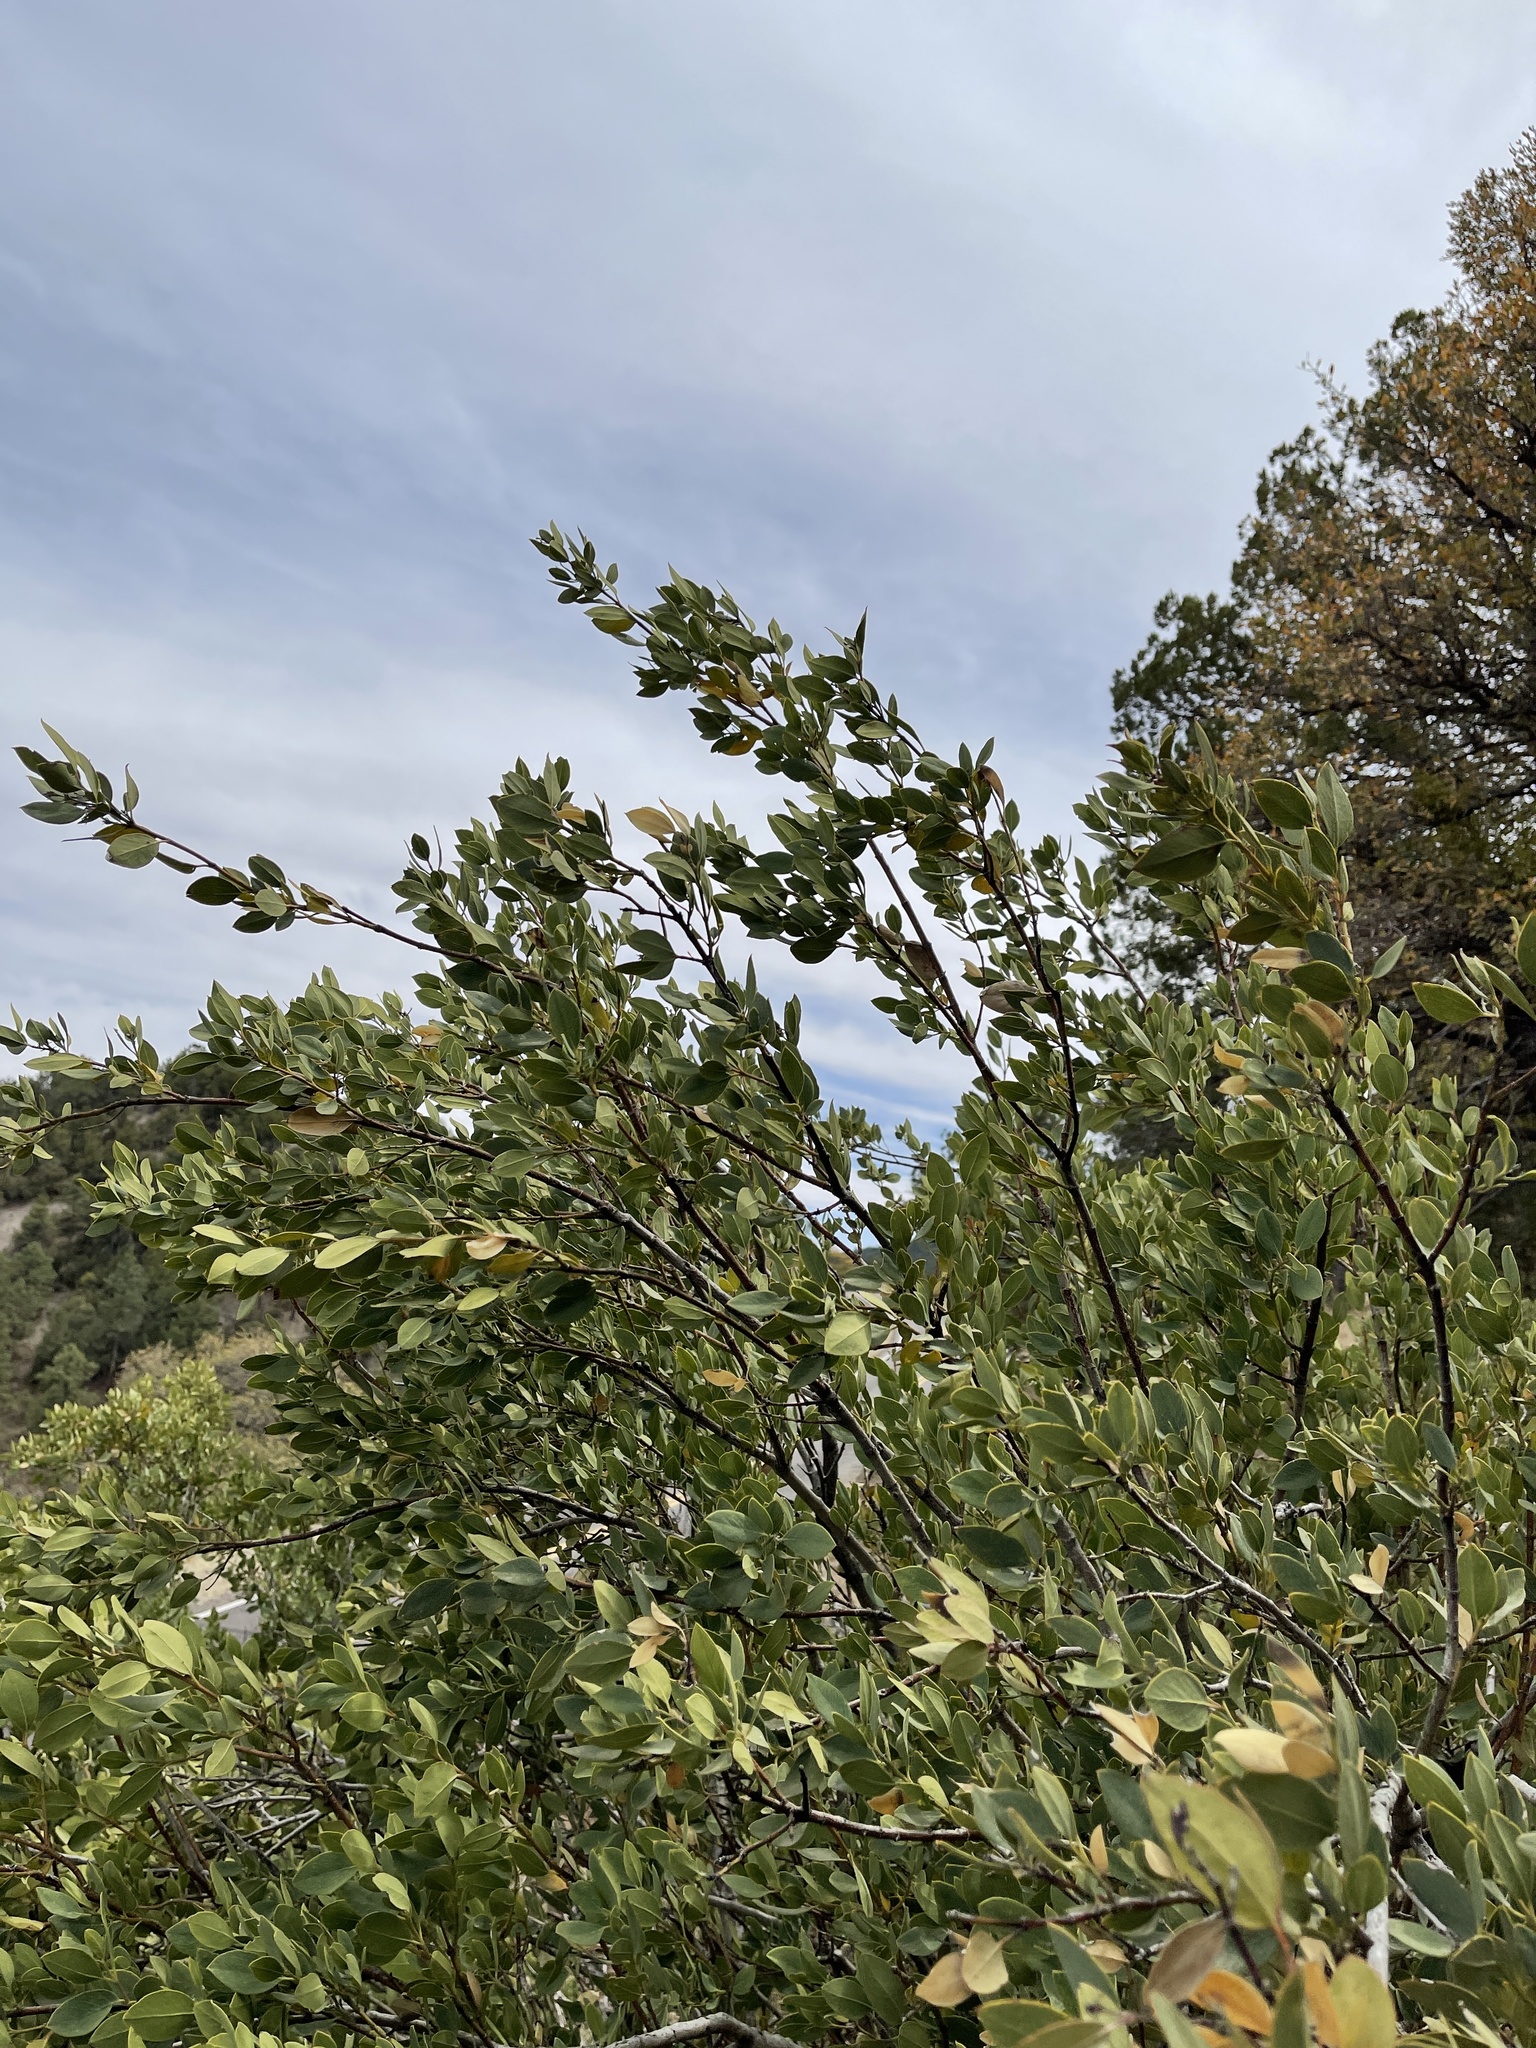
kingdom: Plantae
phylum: Tracheophyta
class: Magnoliopsida
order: Garryales
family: Garryaceae
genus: Garrya
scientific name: Garrya wrightii
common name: Wright's silktassel
